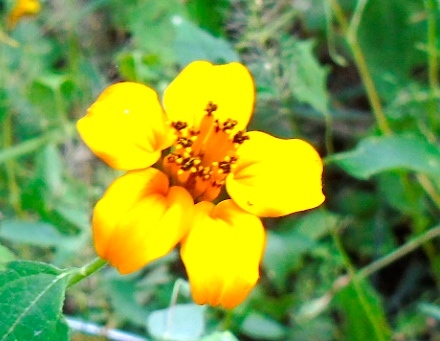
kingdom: Plantae
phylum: Tracheophyta
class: Magnoliopsida
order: Asterales
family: Asteraceae
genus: Sclerocarpus
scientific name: Sclerocarpus divaricatus
